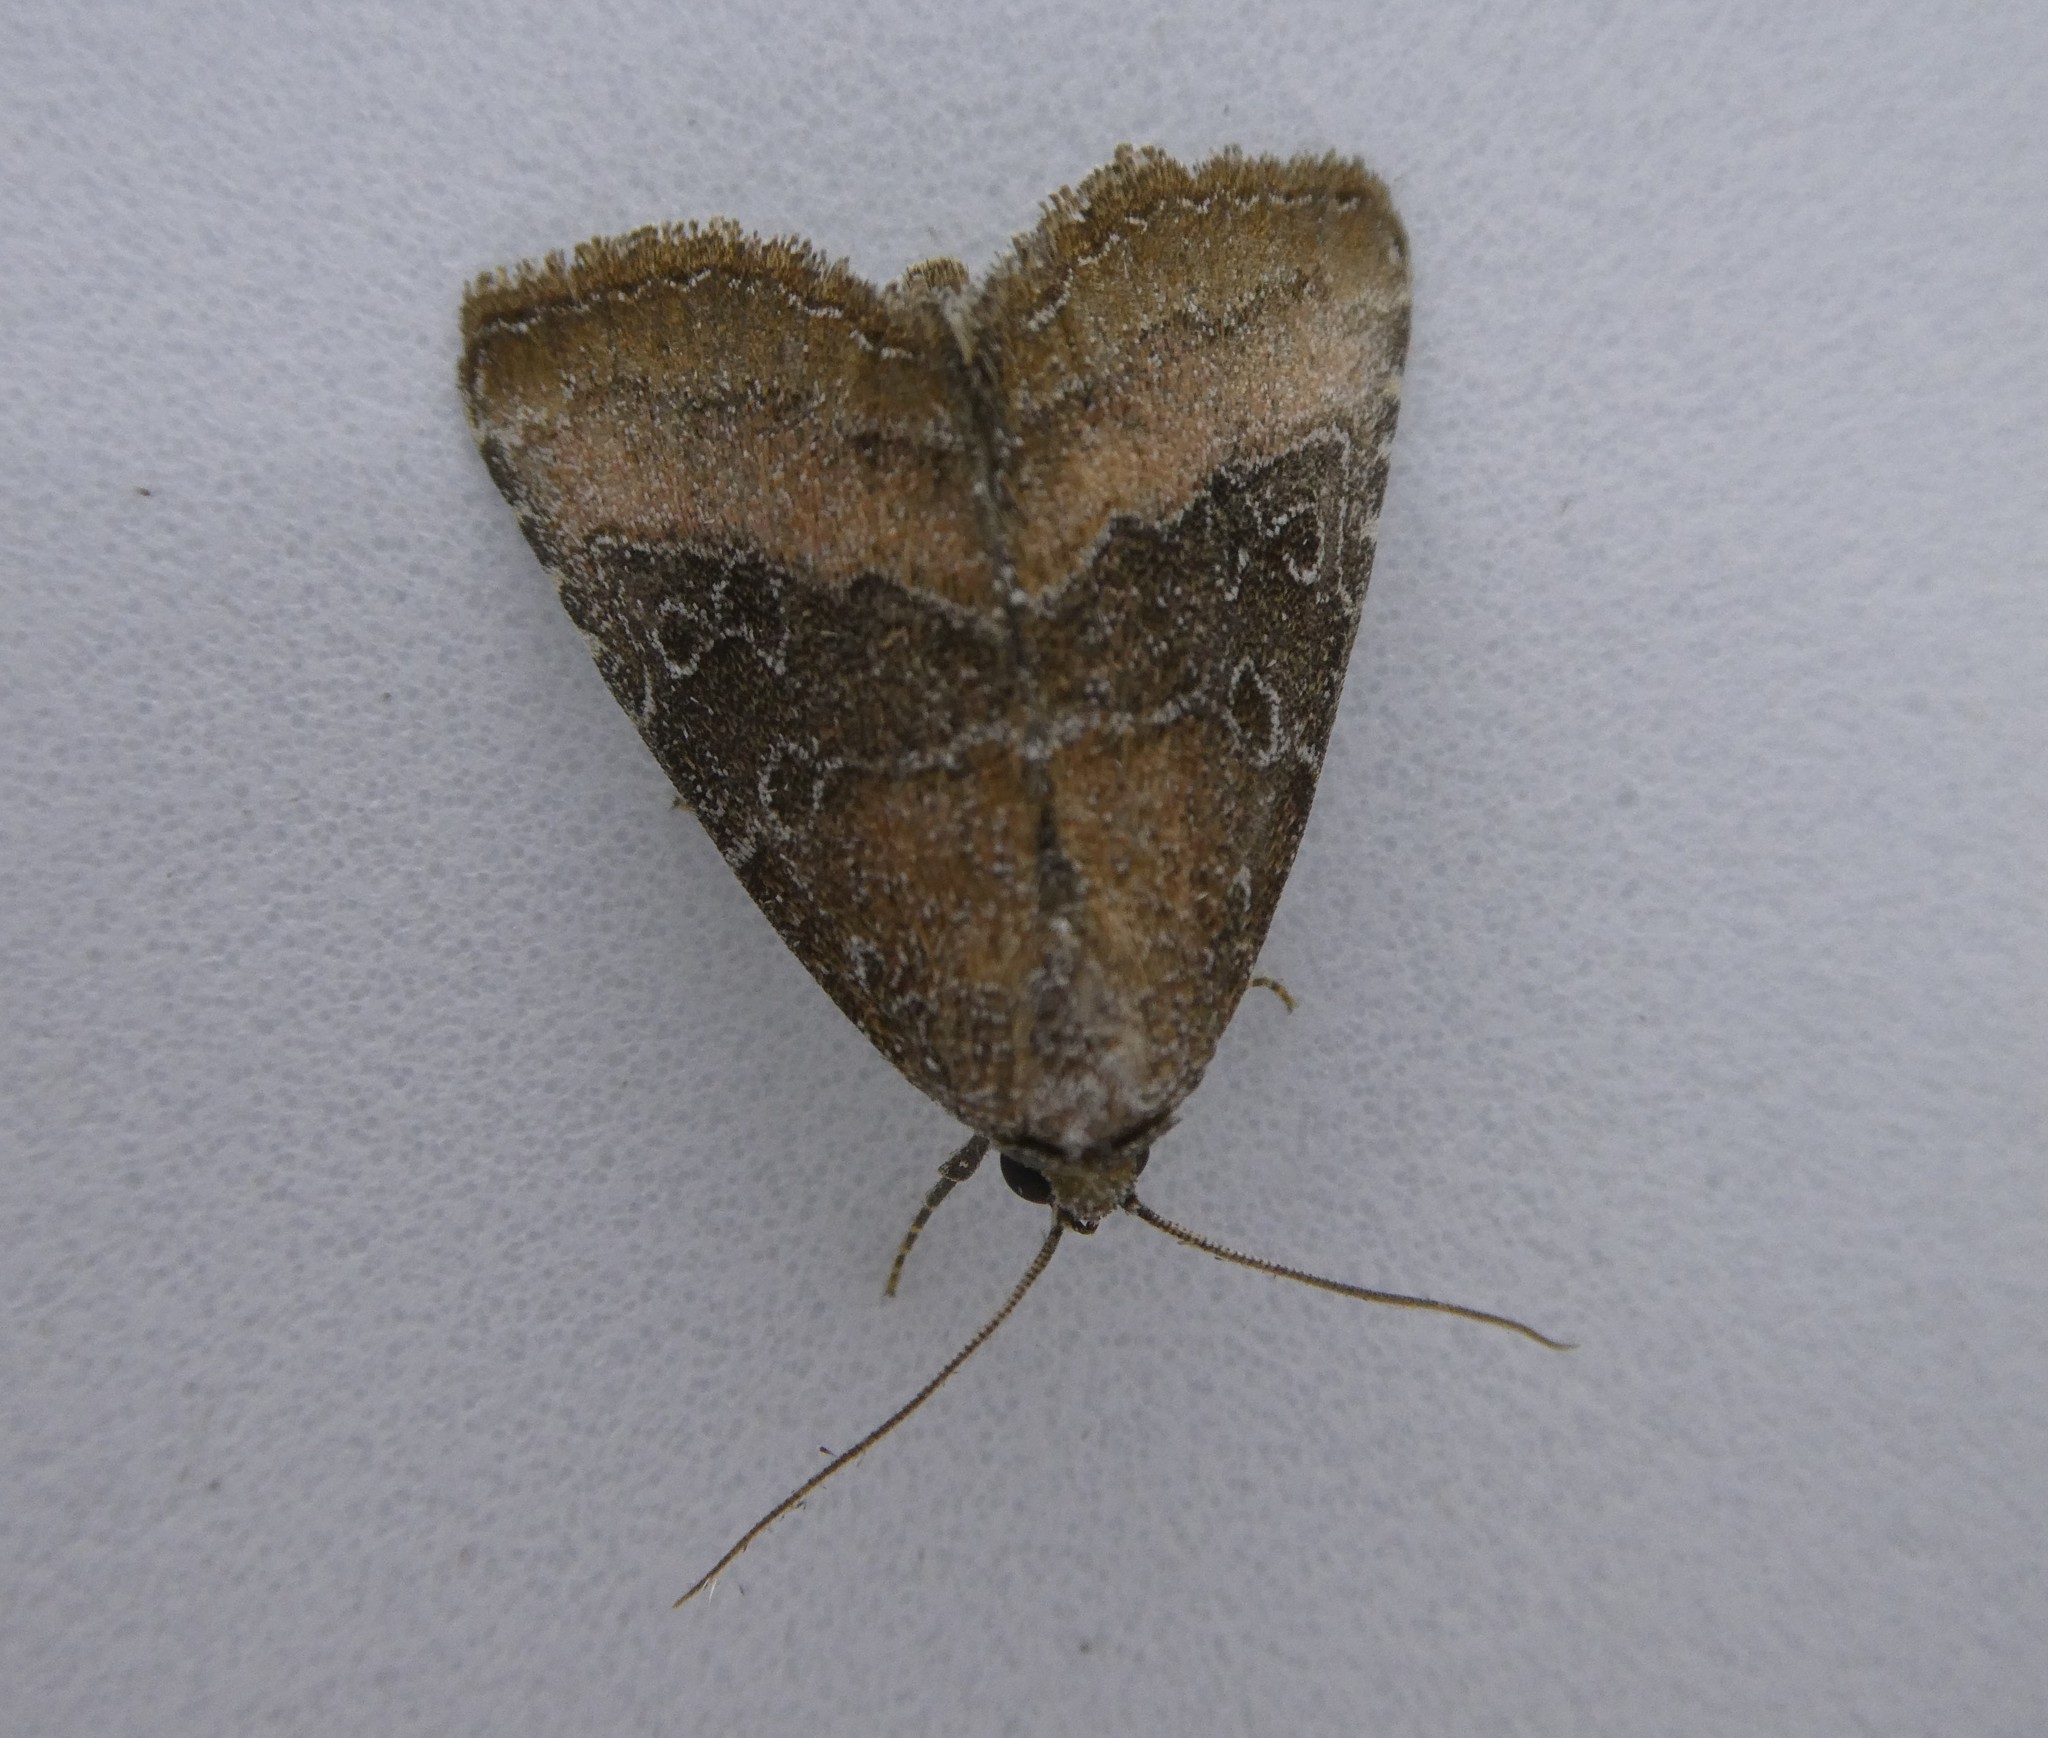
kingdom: Animalia
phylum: Arthropoda
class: Insecta
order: Lepidoptera
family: Noctuidae
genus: Ogdoconta
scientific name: Ogdoconta cinereola
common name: Common pinkband
